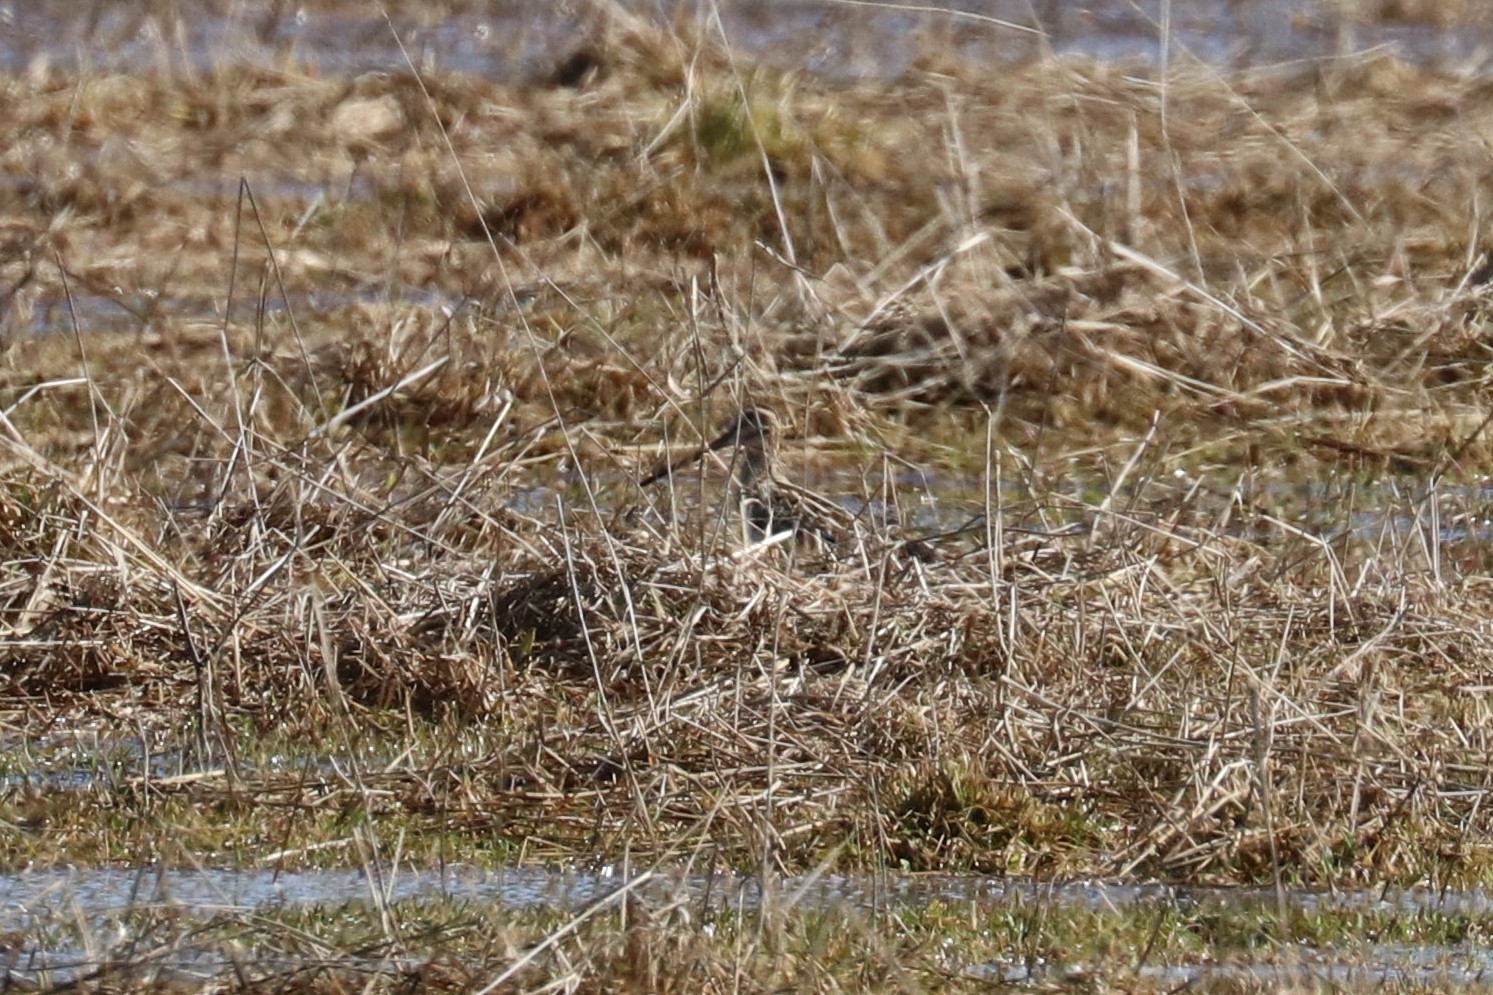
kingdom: Animalia
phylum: Chordata
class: Aves
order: Charadriiformes
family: Scolopacidae
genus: Gallinago
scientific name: Gallinago gallinago
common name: Common snipe
